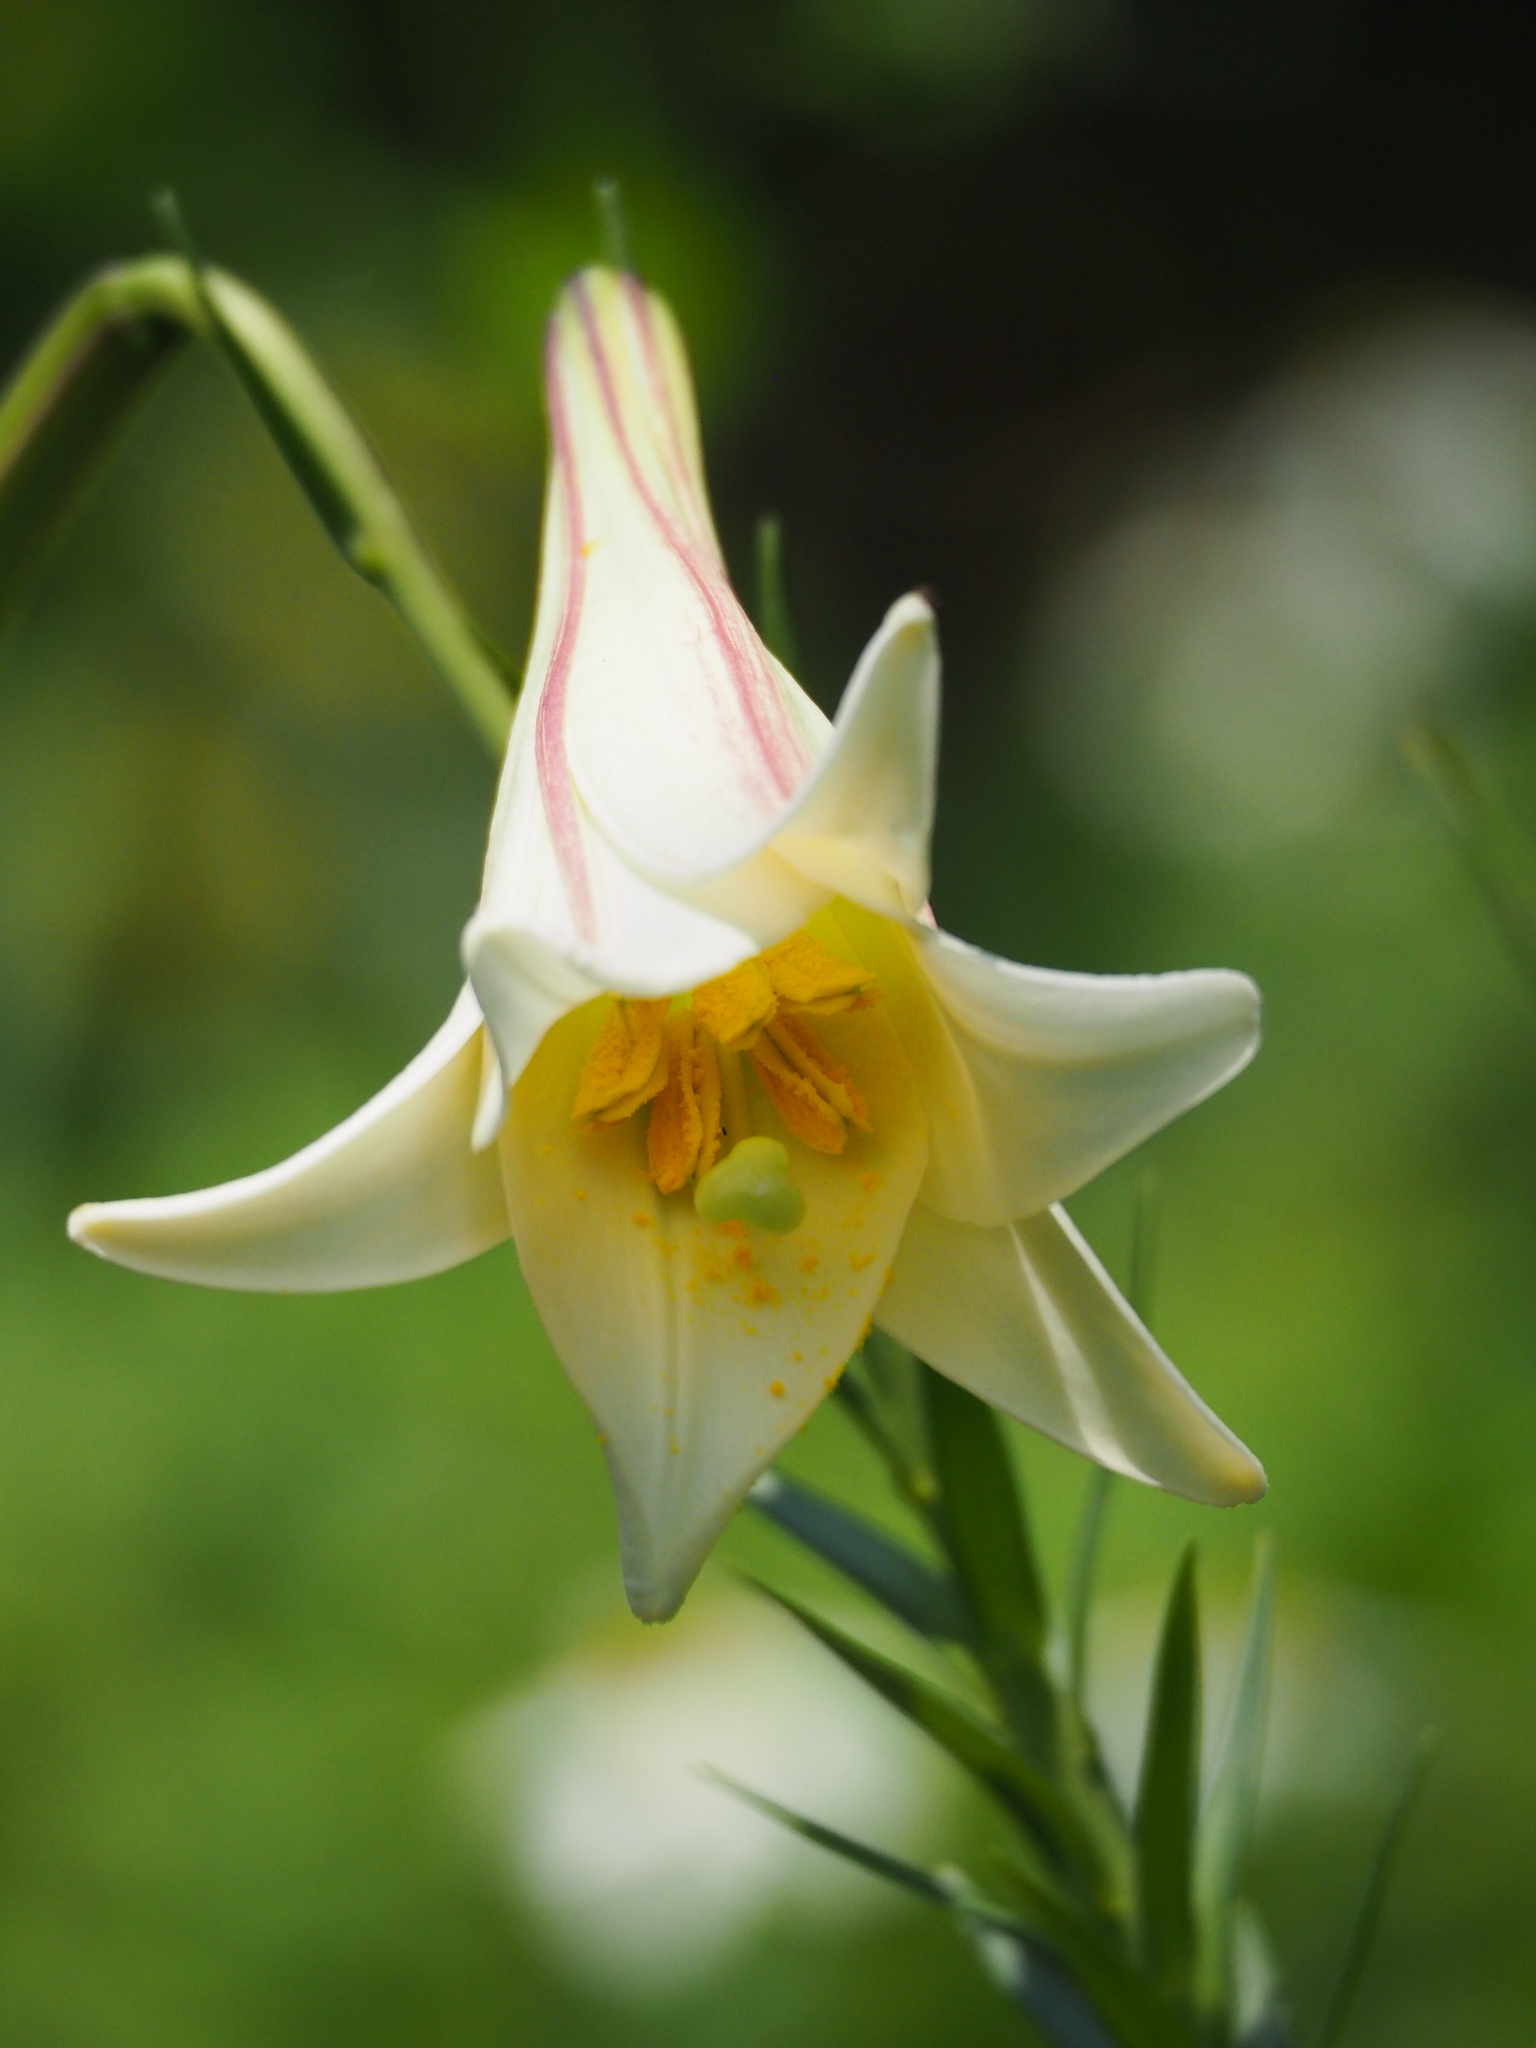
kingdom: Plantae
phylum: Tracheophyta
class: Liliopsida
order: Liliales
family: Liliaceae
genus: Lilium
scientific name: Lilium formosanum
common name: Formosa lily
